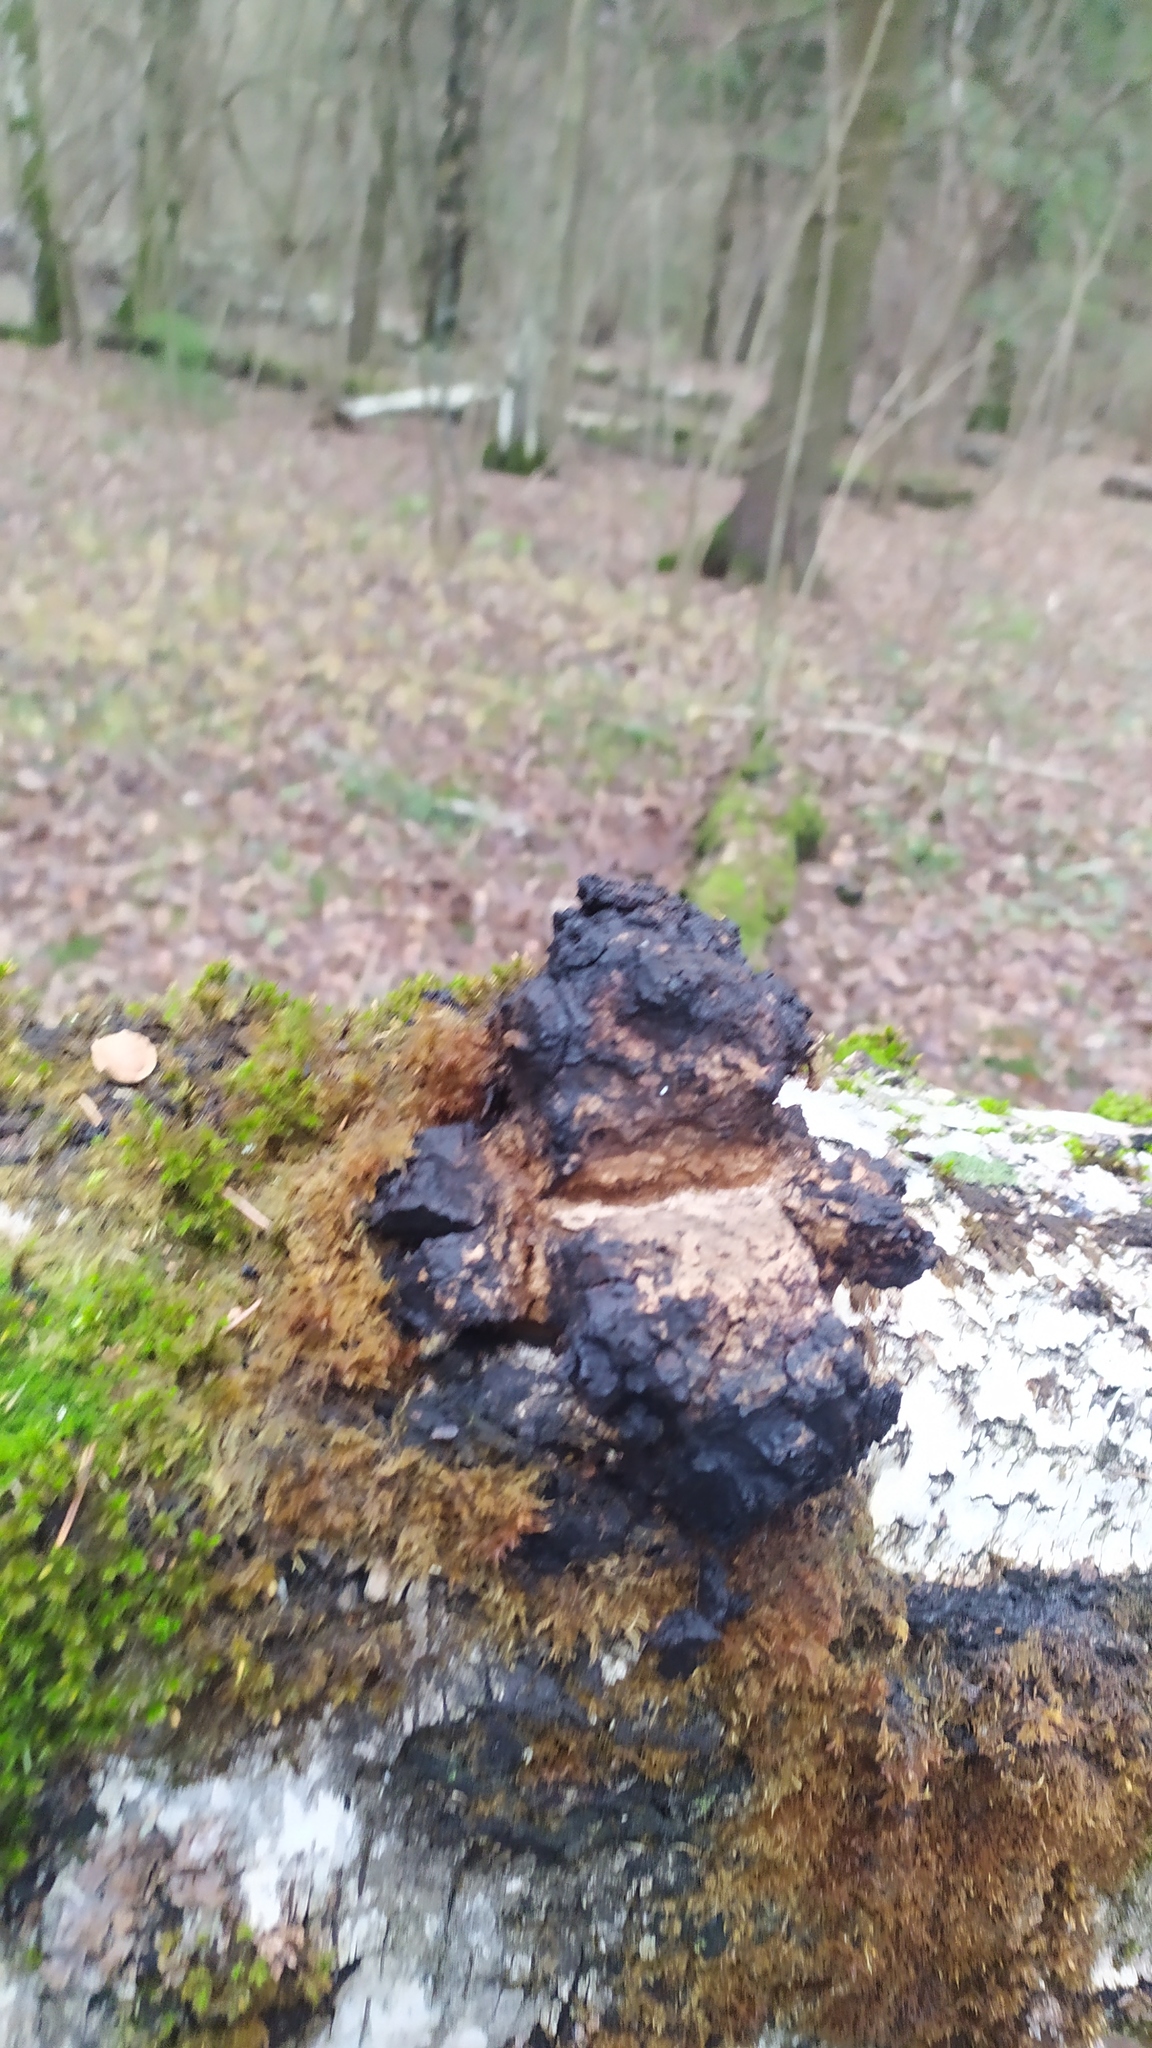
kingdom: Fungi
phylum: Basidiomycota
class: Agaricomycetes
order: Hymenochaetales
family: Hymenochaetaceae
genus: Inonotus
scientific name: Inonotus obliquus
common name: Chaga
